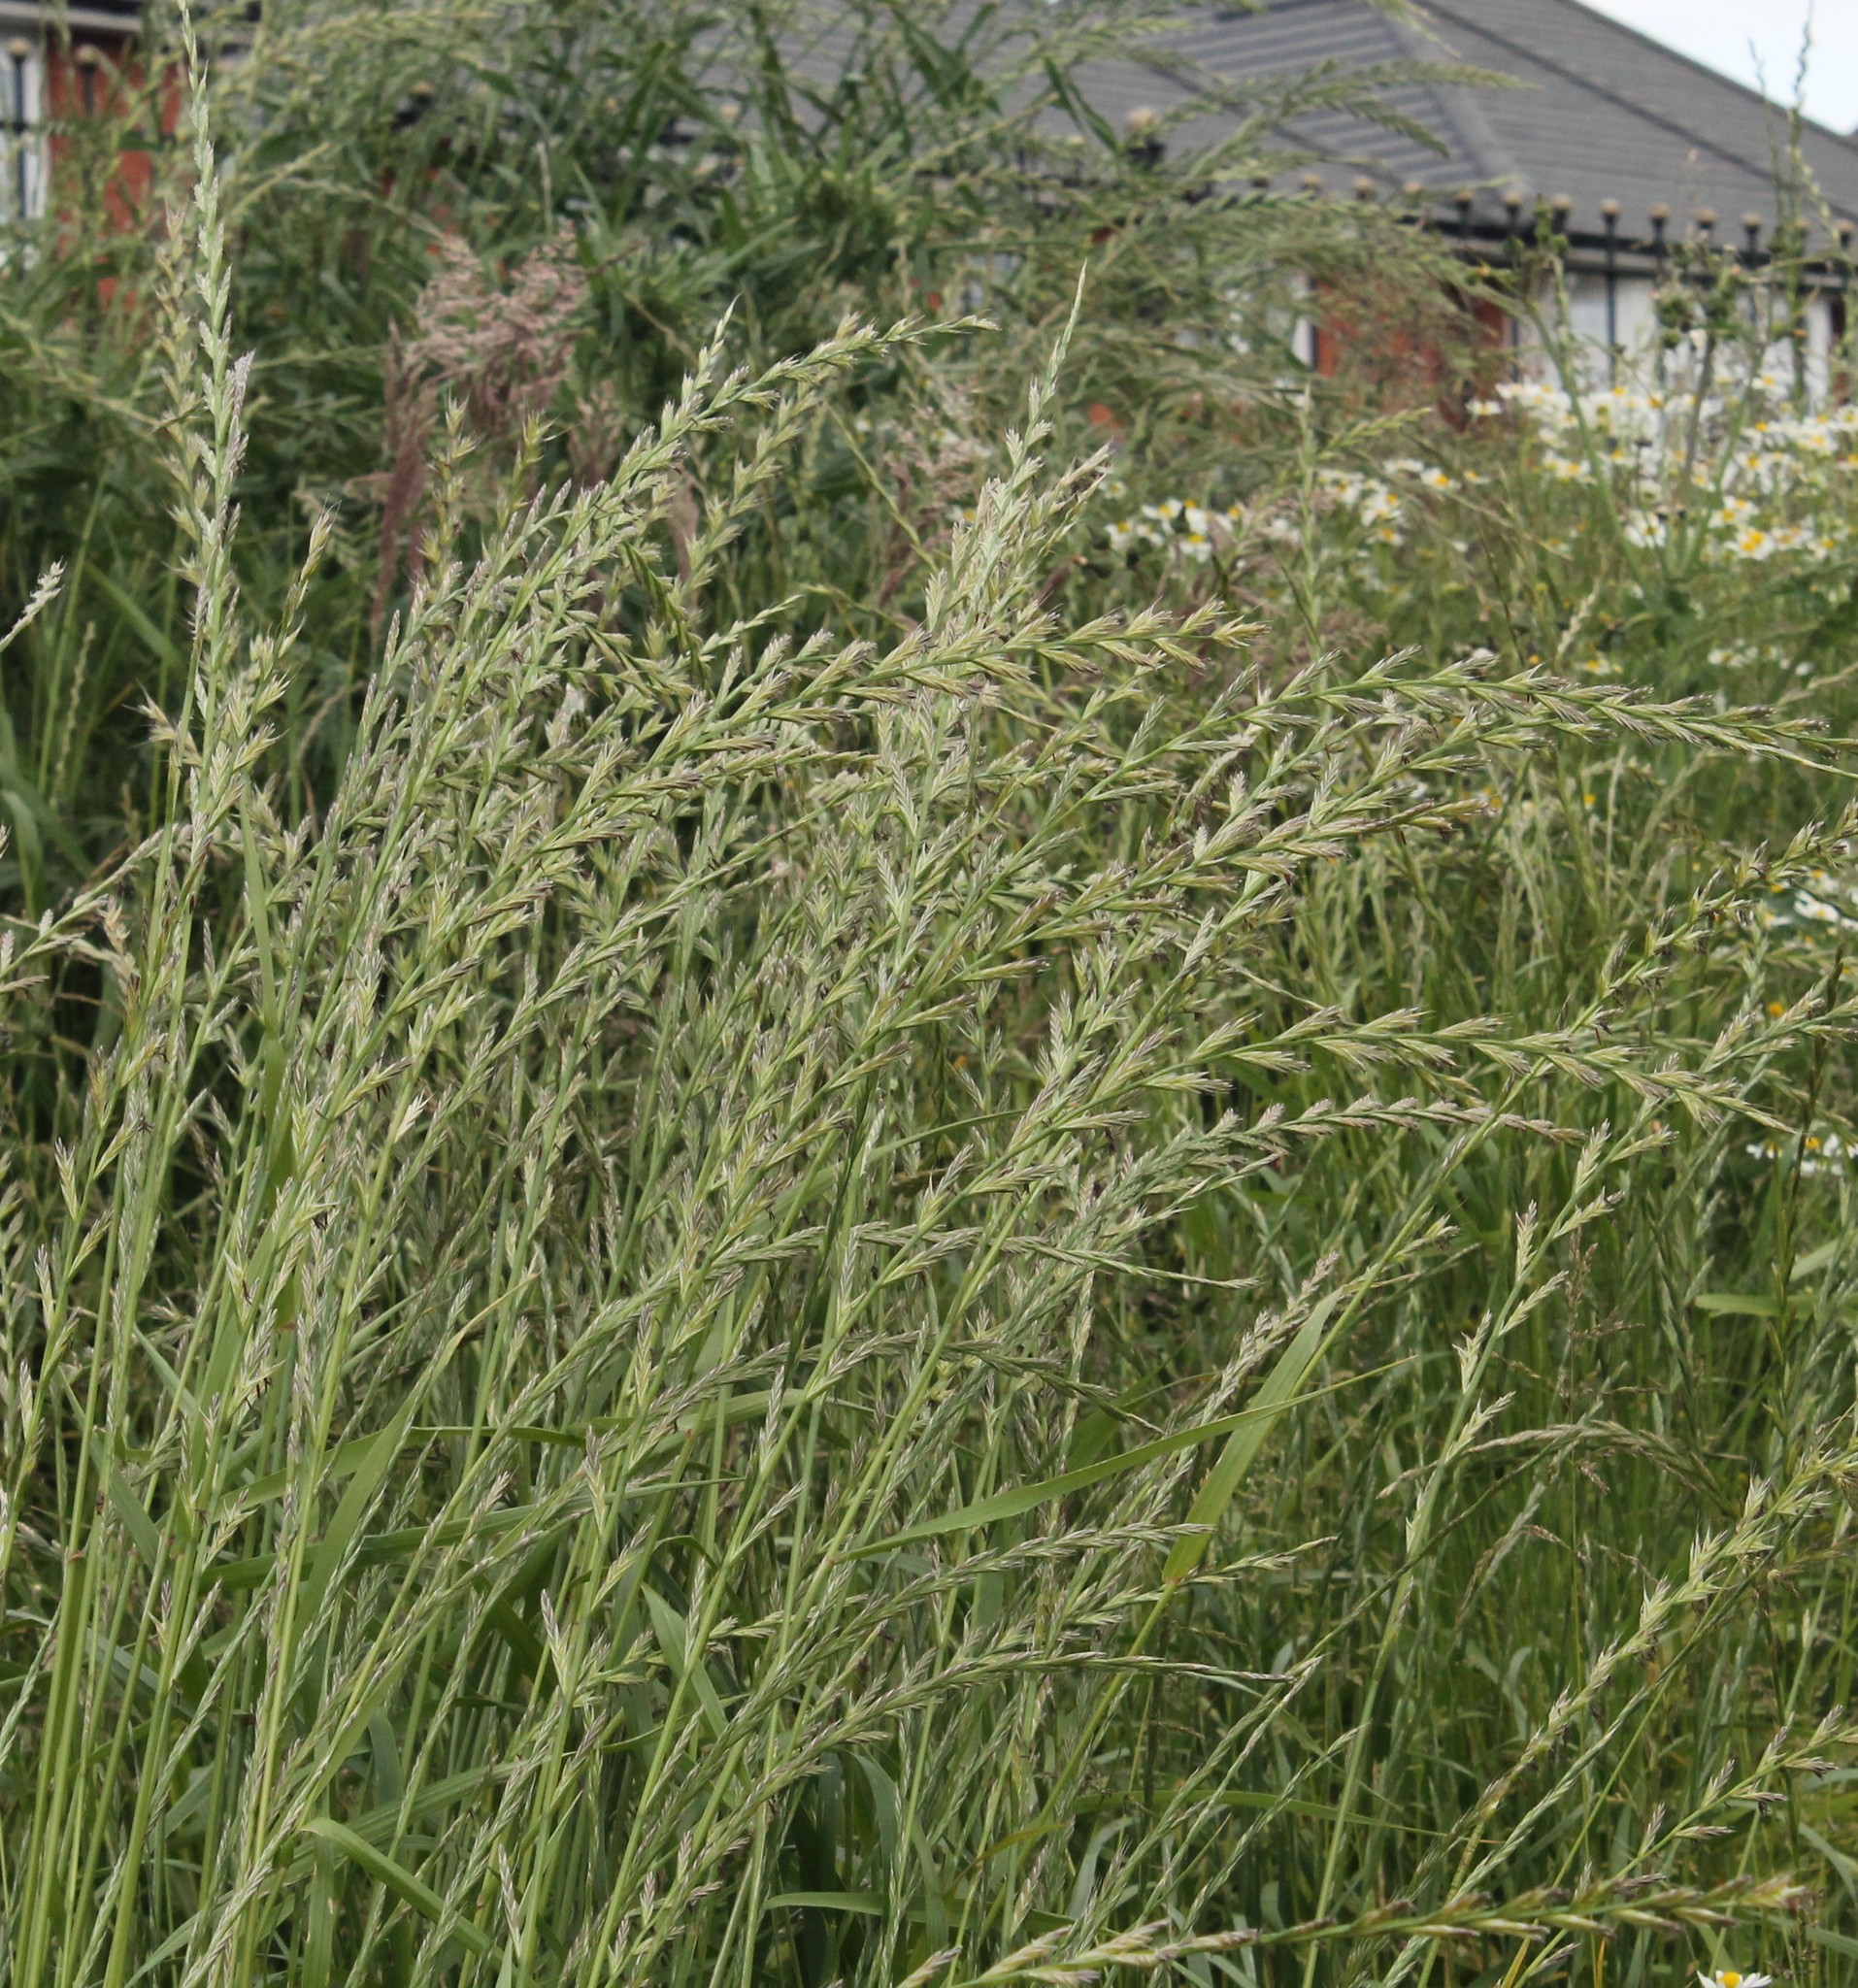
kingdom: Plantae
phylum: Tracheophyta
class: Liliopsida
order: Poales
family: Poaceae
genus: Lolium
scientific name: Lolium multiflorum
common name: Annual ryegrass
